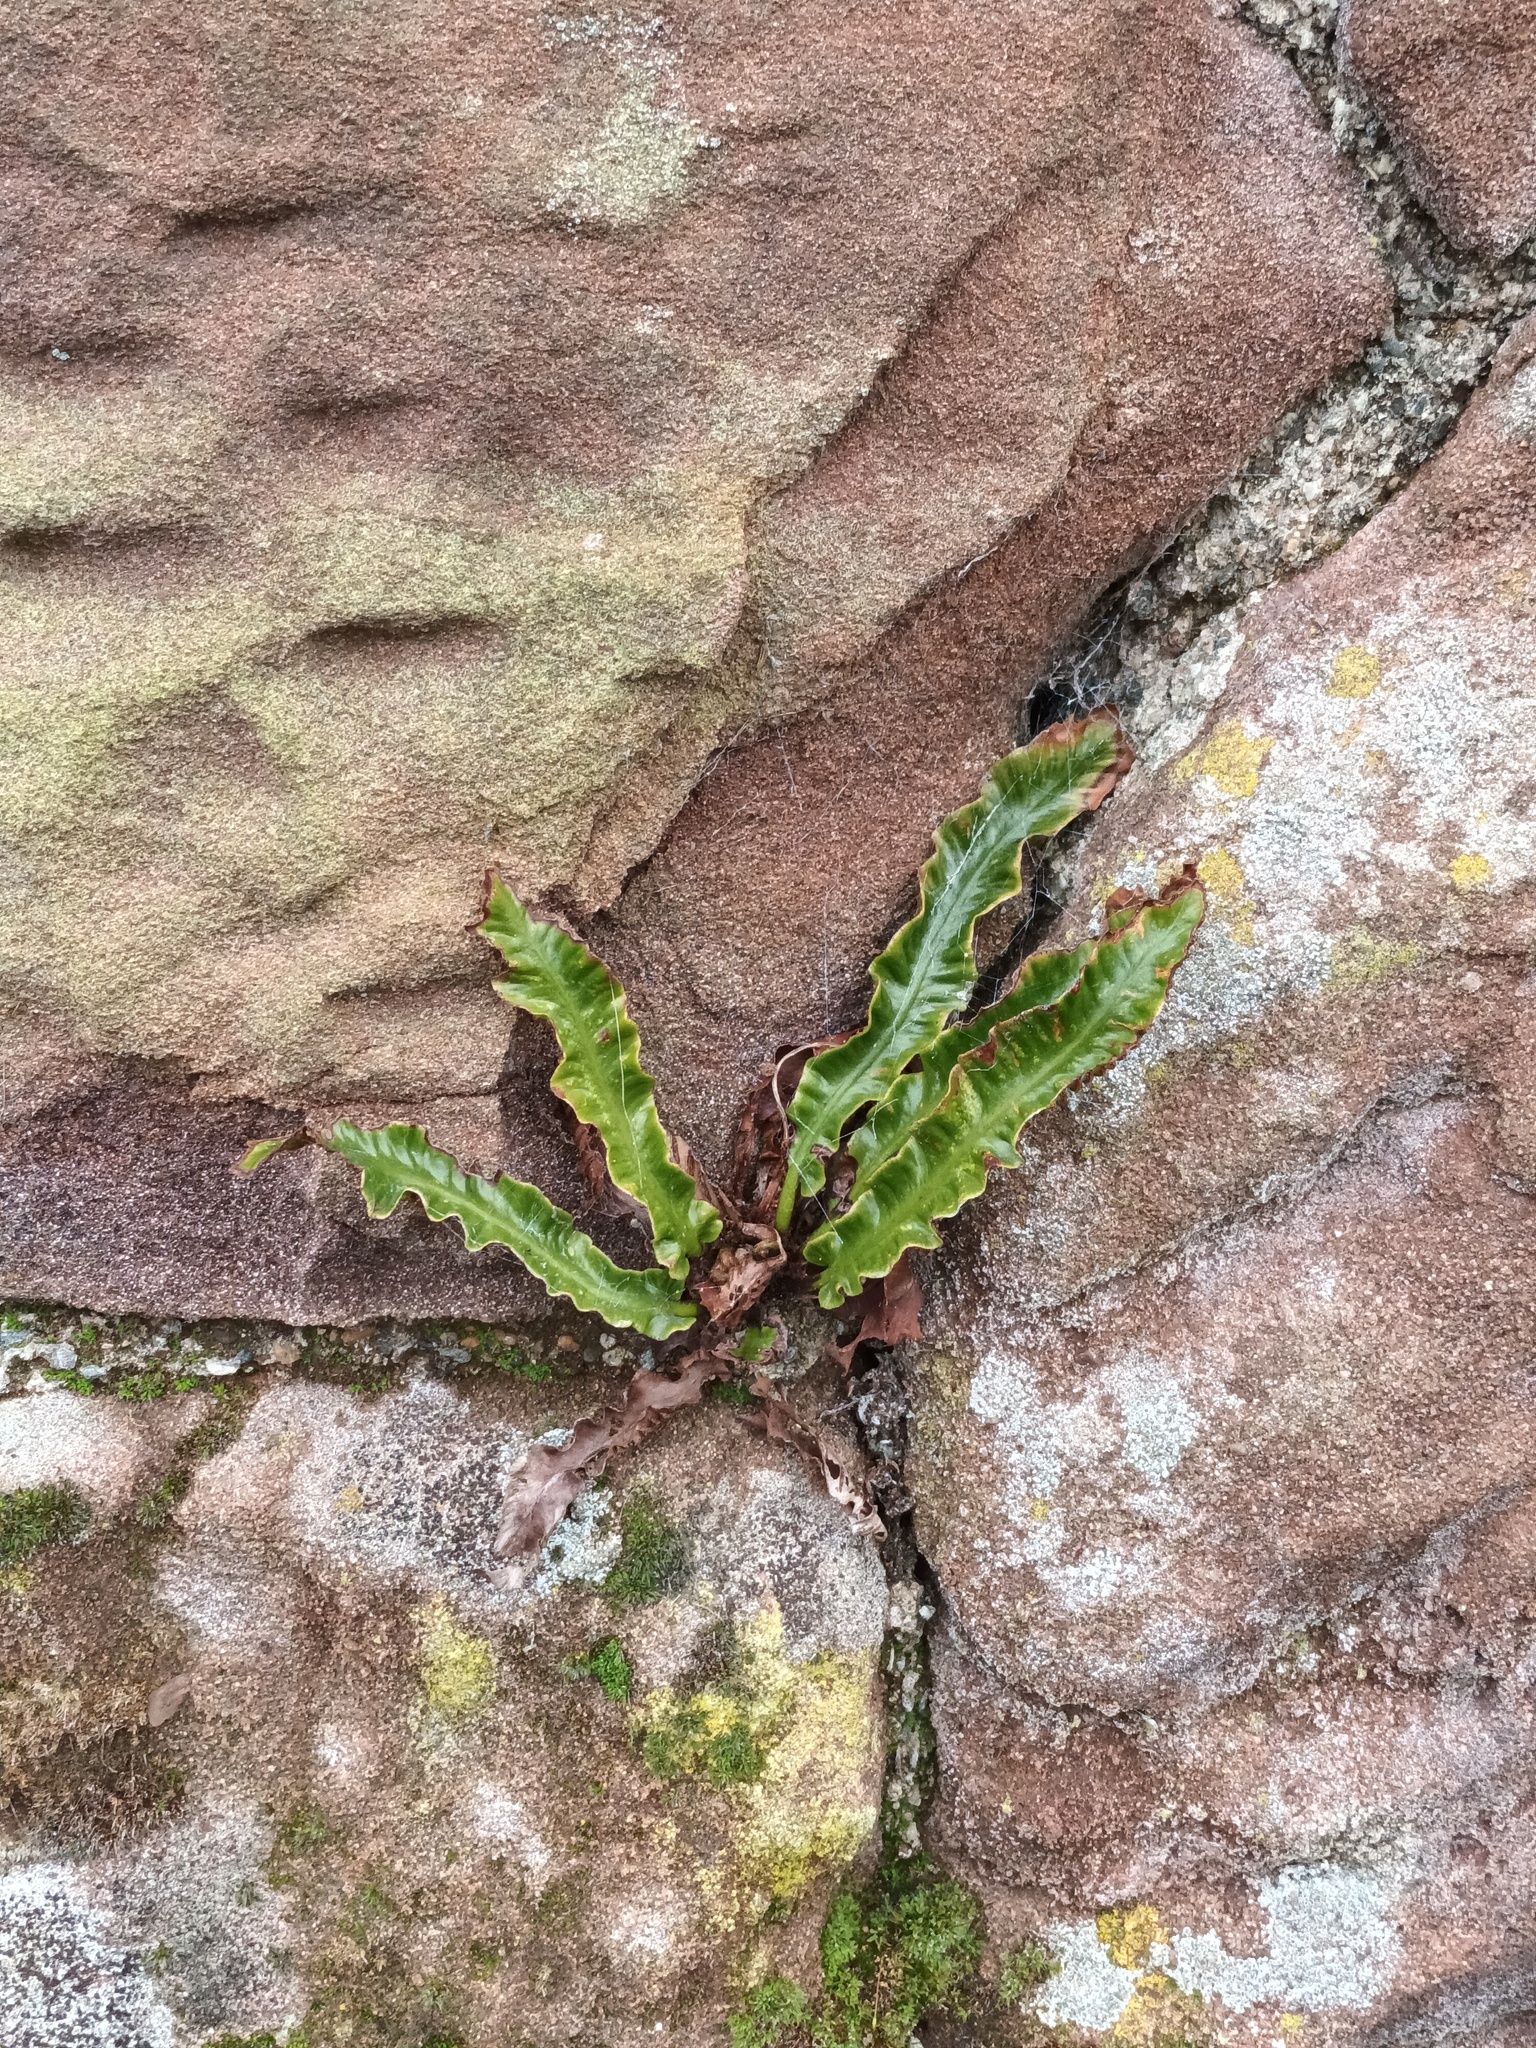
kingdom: Plantae
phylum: Tracheophyta
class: Polypodiopsida
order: Polypodiales
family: Aspleniaceae
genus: Asplenium
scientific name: Asplenium scolopendrium
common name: Hart's-tongue fern
